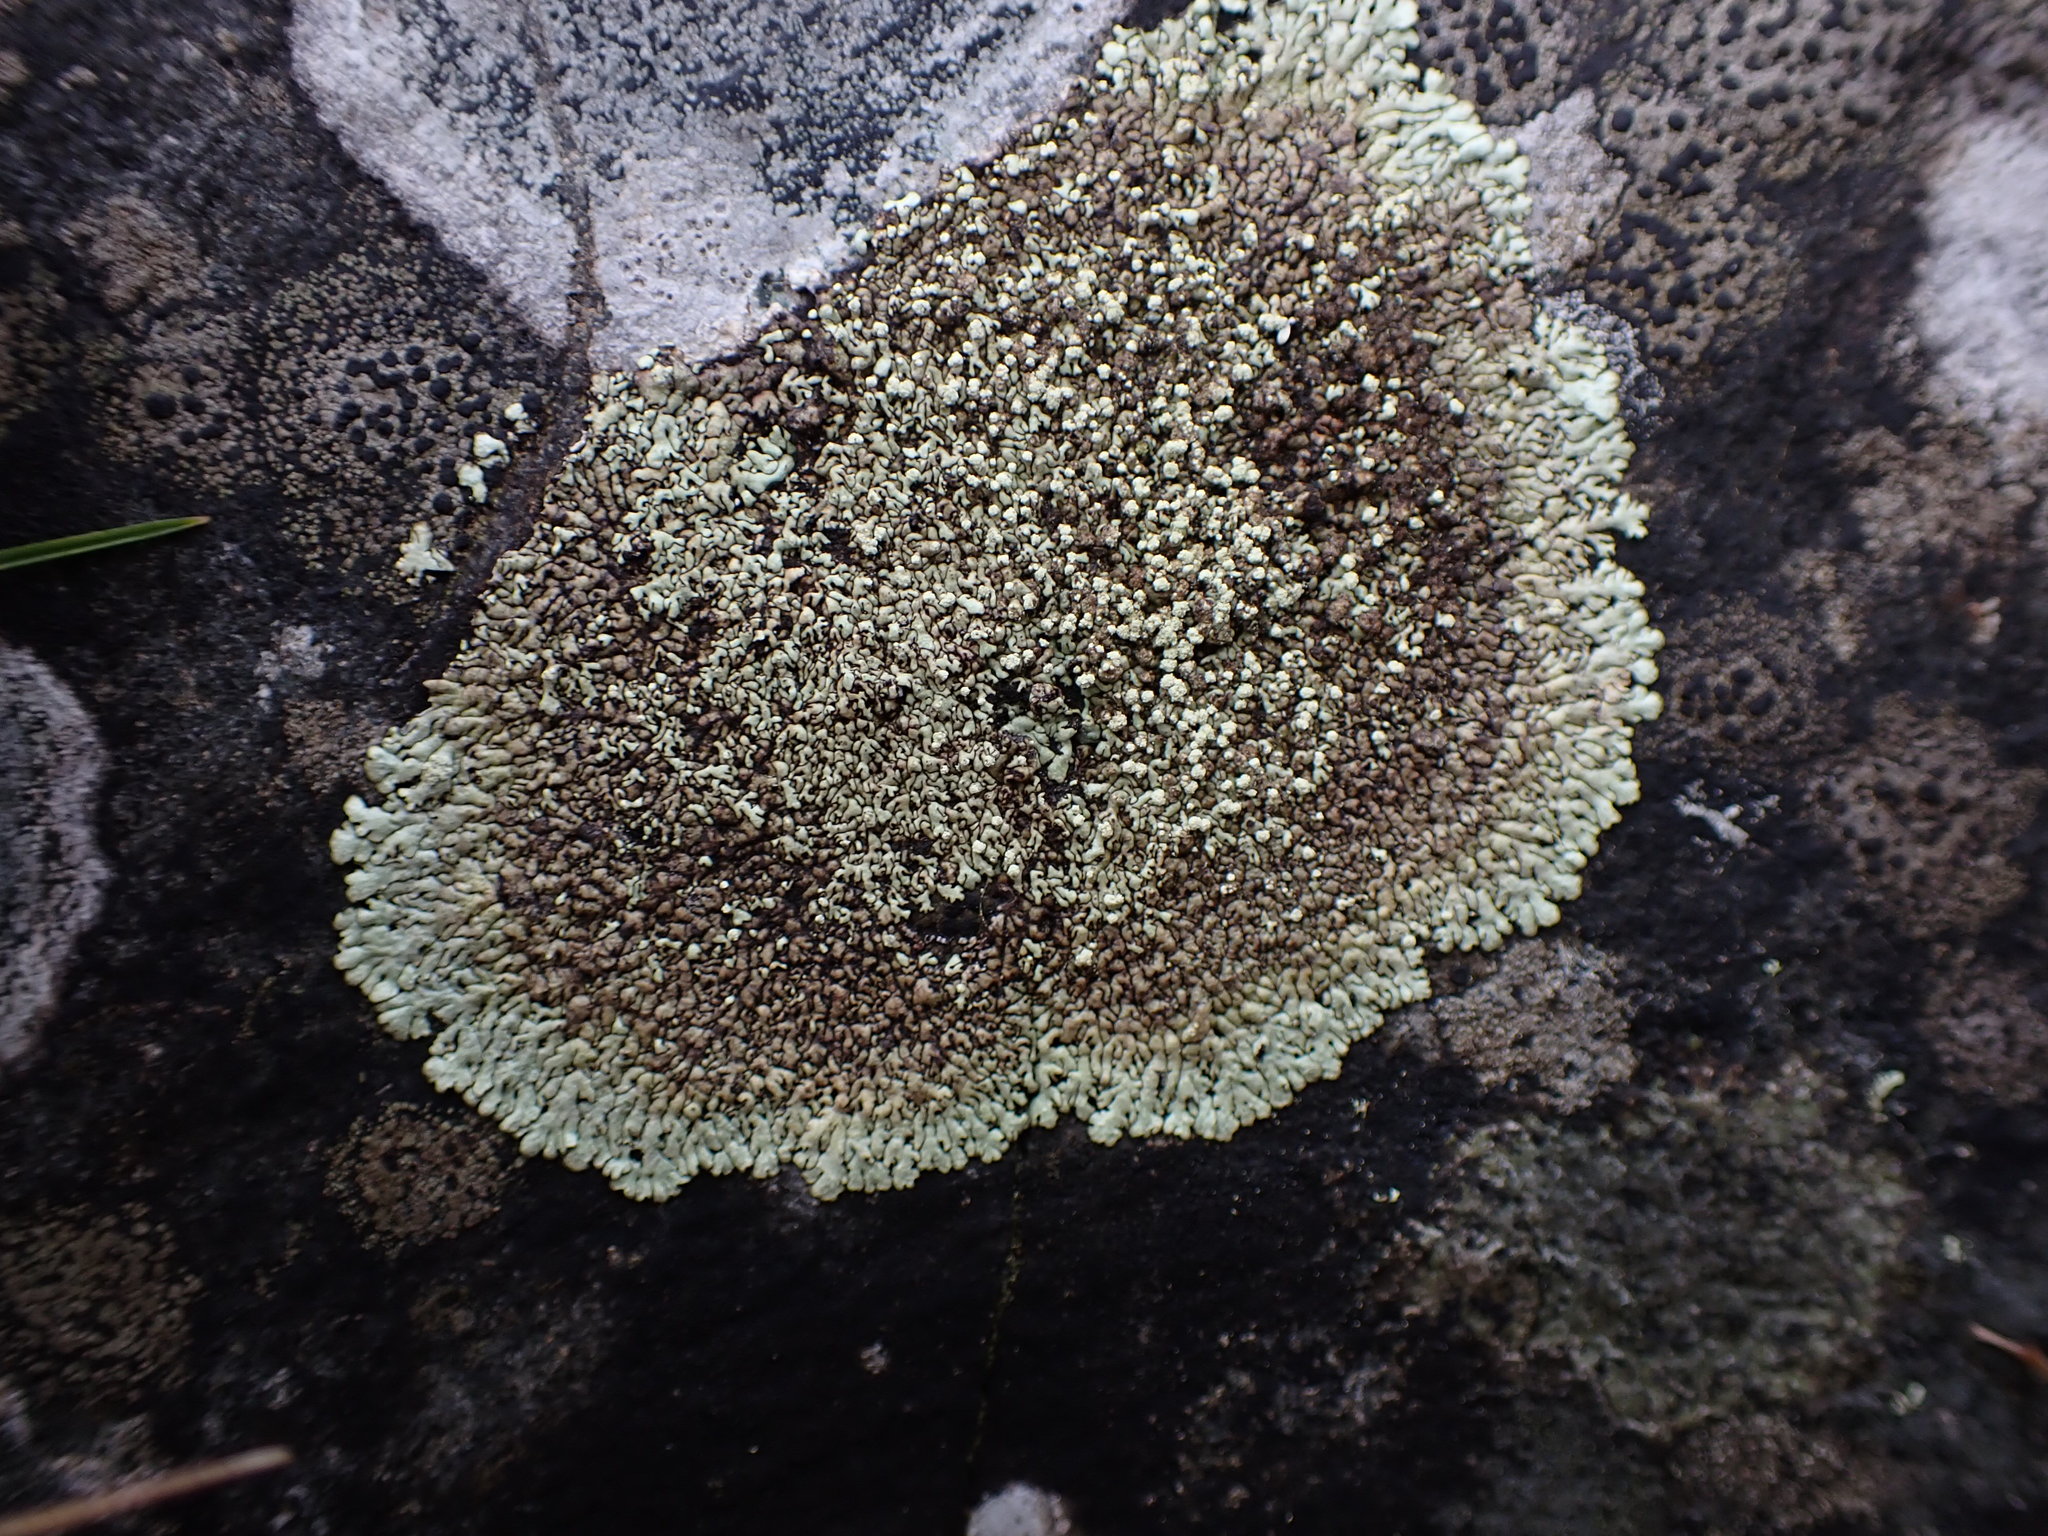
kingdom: Fungi
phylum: Ascomycota
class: Lecanoromycetes
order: Lecanorales
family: Parmeliaceae
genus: Xanthoparmelia
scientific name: Xanthoparmelia mougeotii
